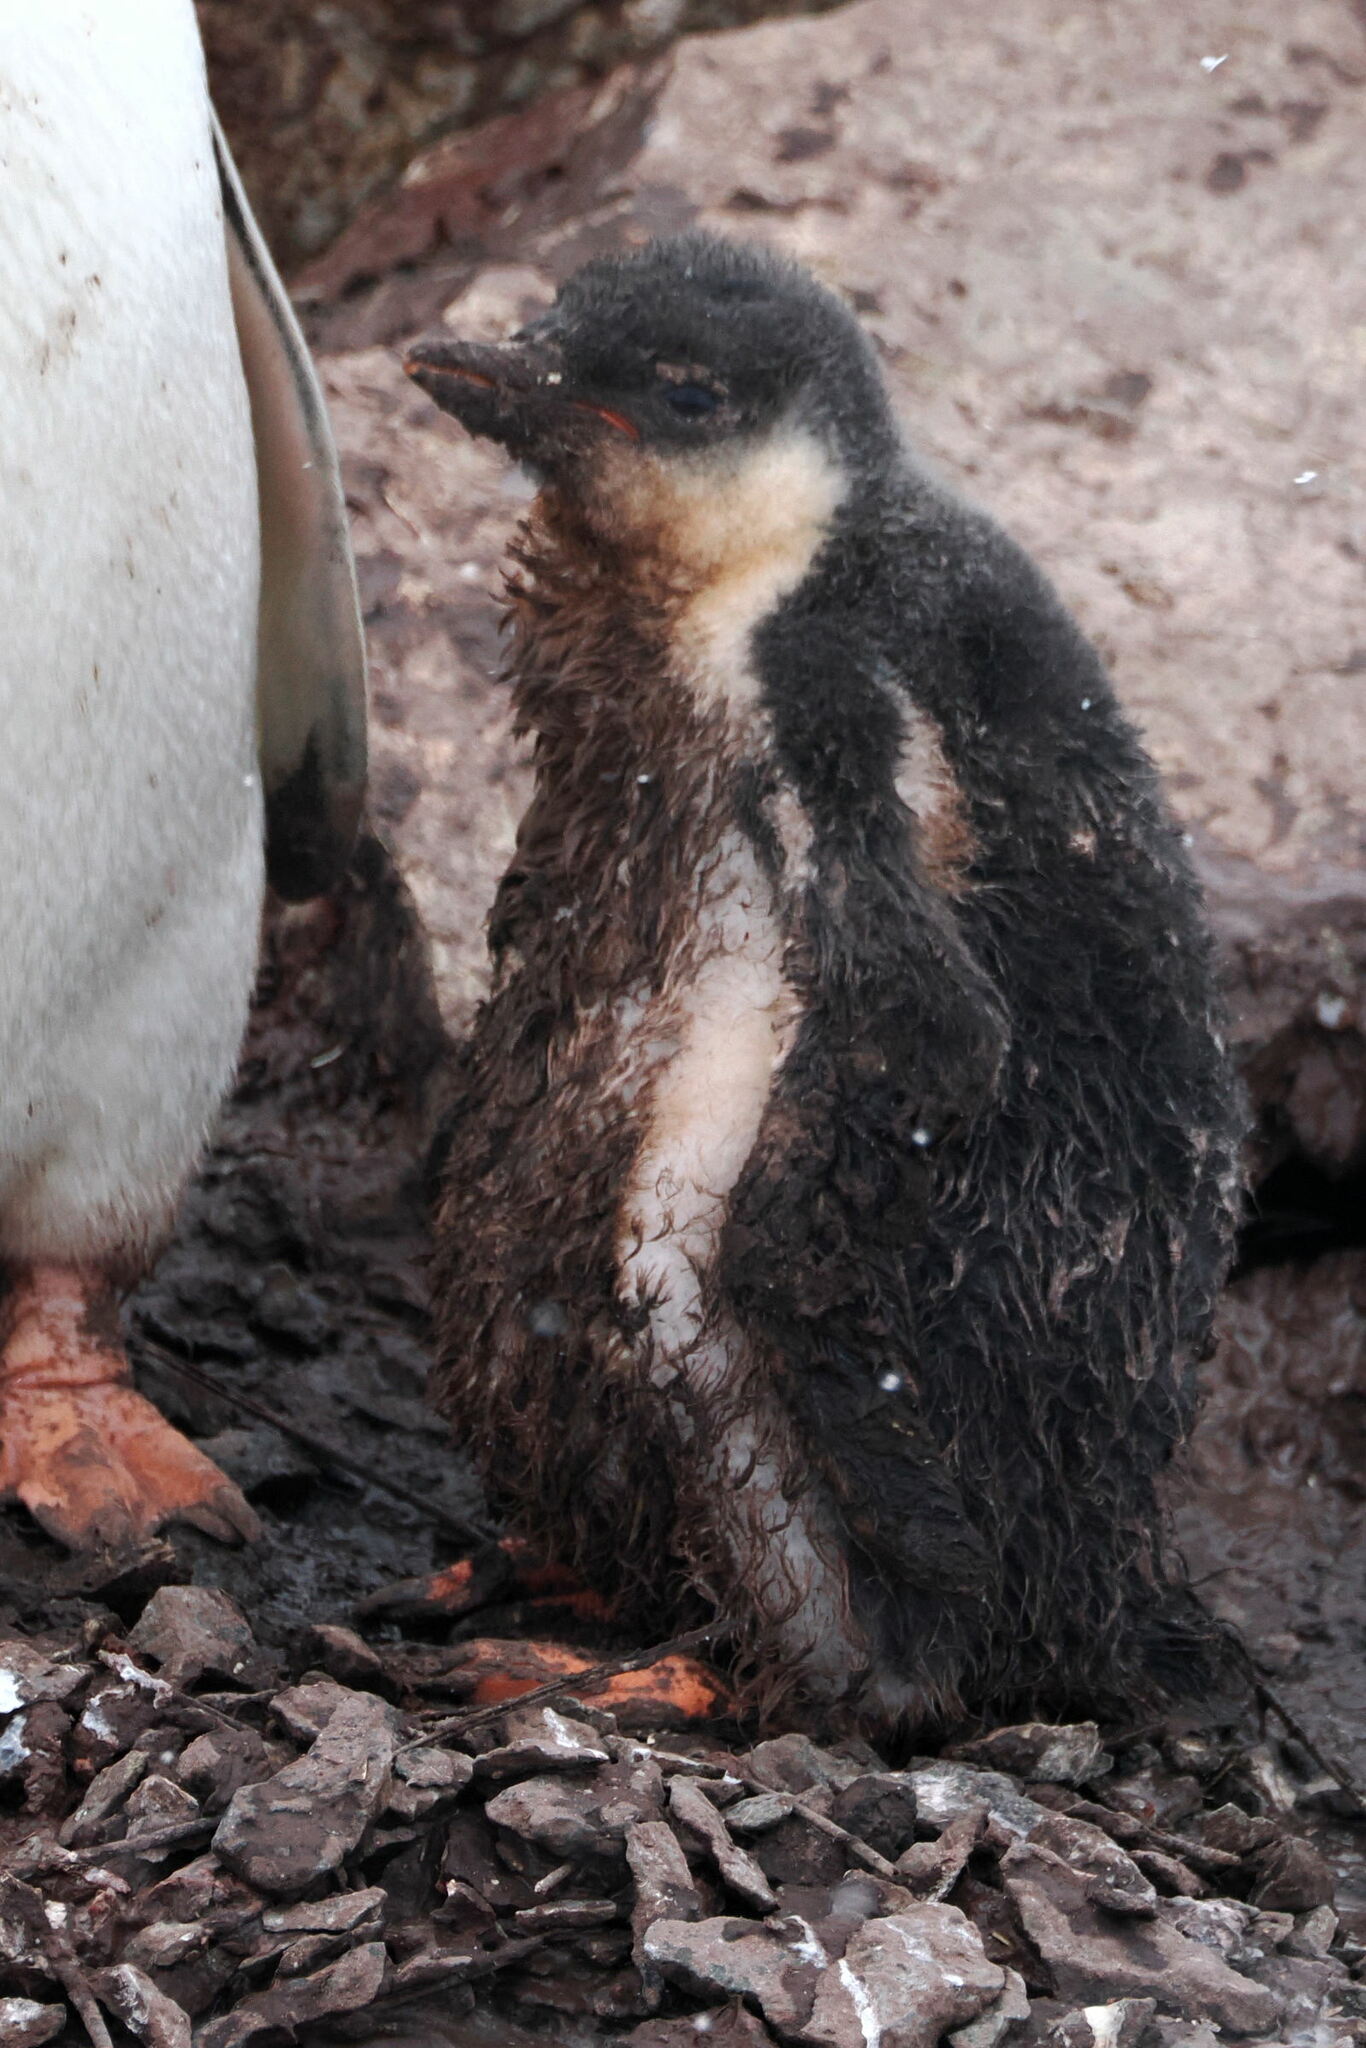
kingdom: Animalia
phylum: Chordata
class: Aves
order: Sphenisciformes
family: Spheniscidae
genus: Pygoscelis
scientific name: Pygoscelis papua
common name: Gentoo penguin
